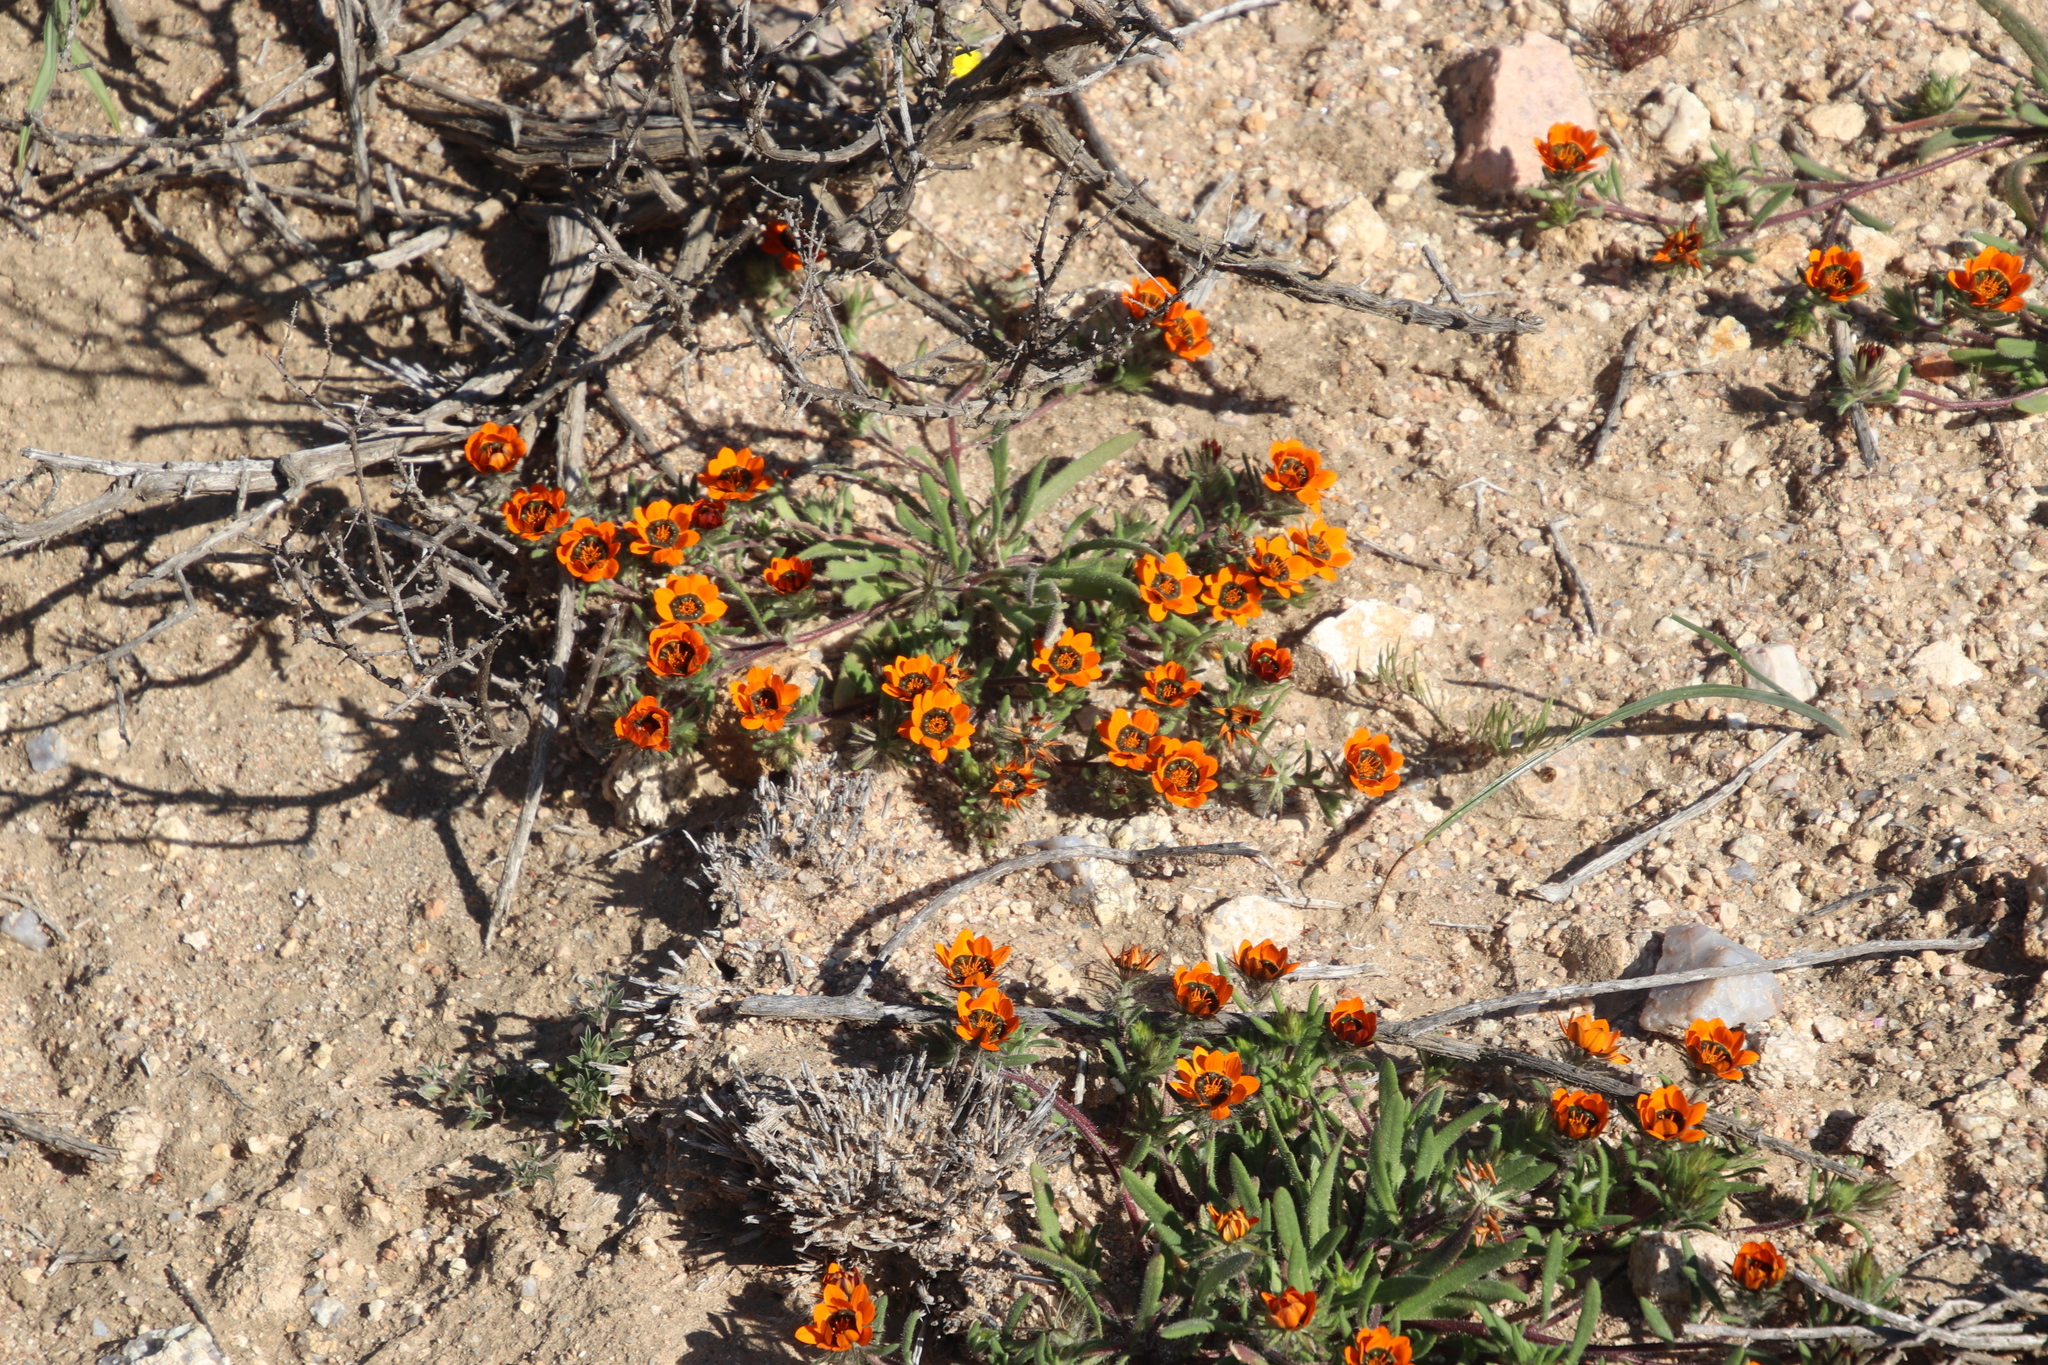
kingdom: Plantae
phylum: Tracheophyta
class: Magnoliopsida
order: Asterales
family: Asteraceae
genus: Gorteria
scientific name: Gorteria diffusa
